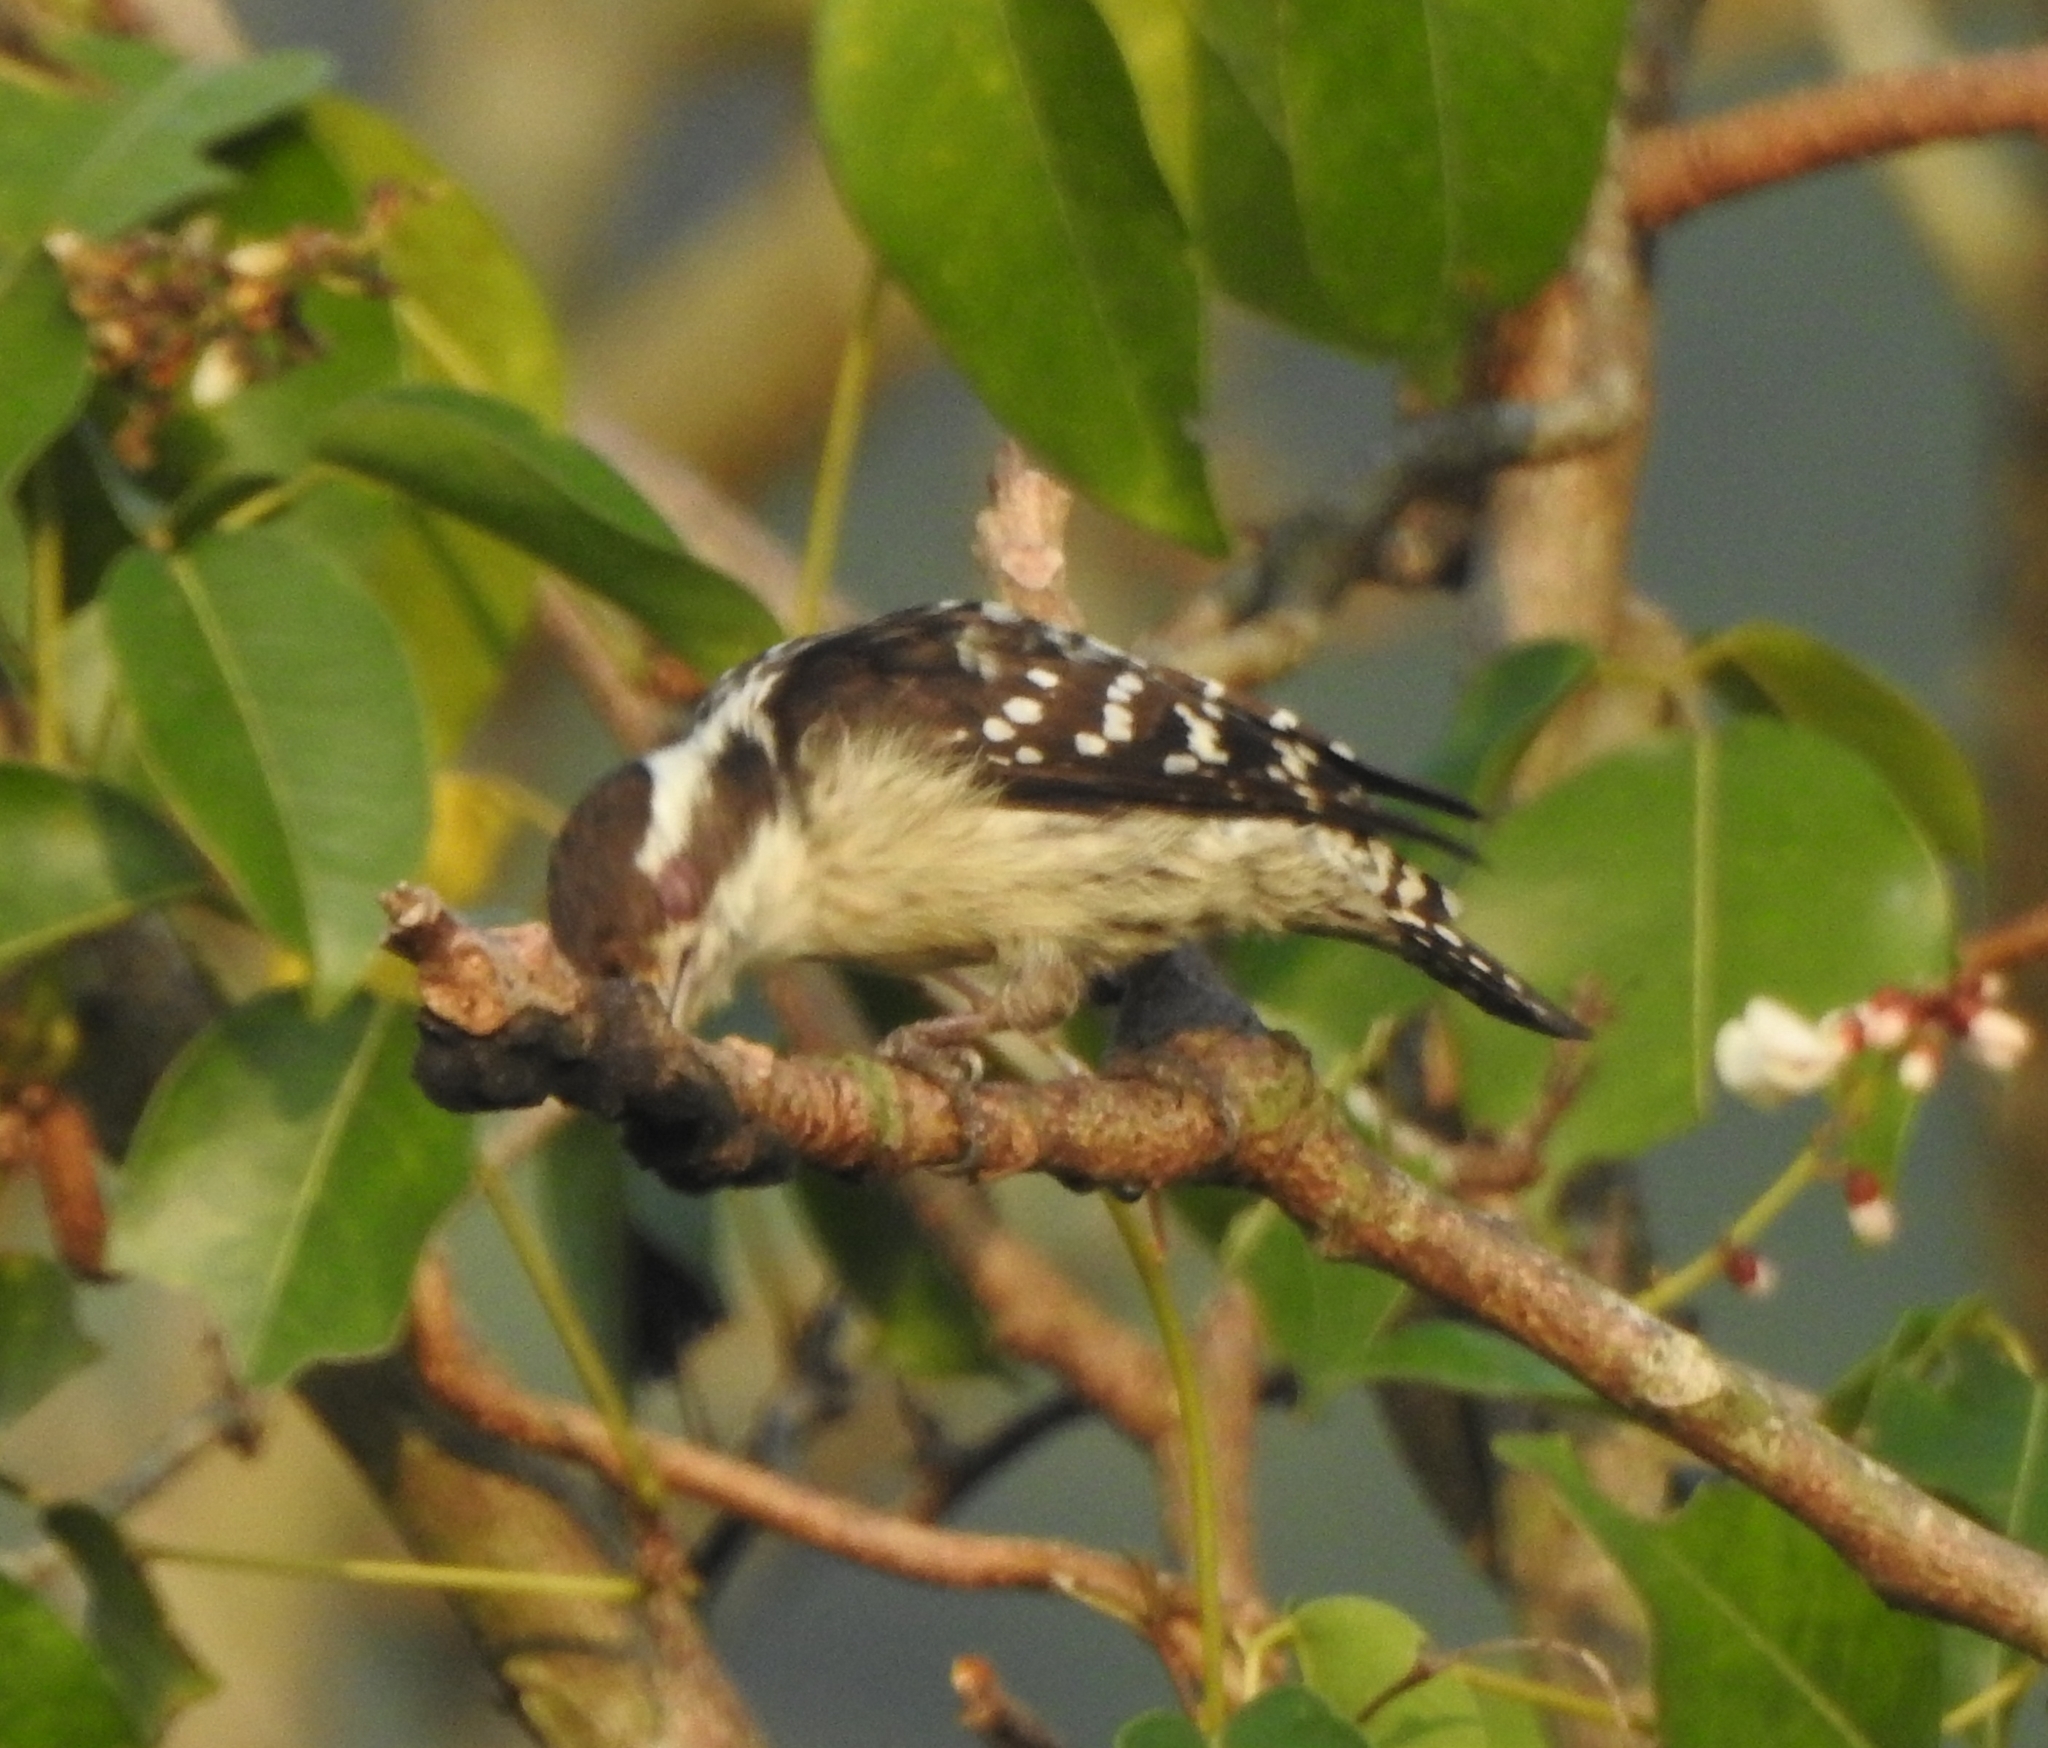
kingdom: Animalia
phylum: Chordata
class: Aves
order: Piciformes
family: Picidae
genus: Yungipicus
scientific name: Yungipicus nanus
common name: Brown-capped pygmy woodpecker
